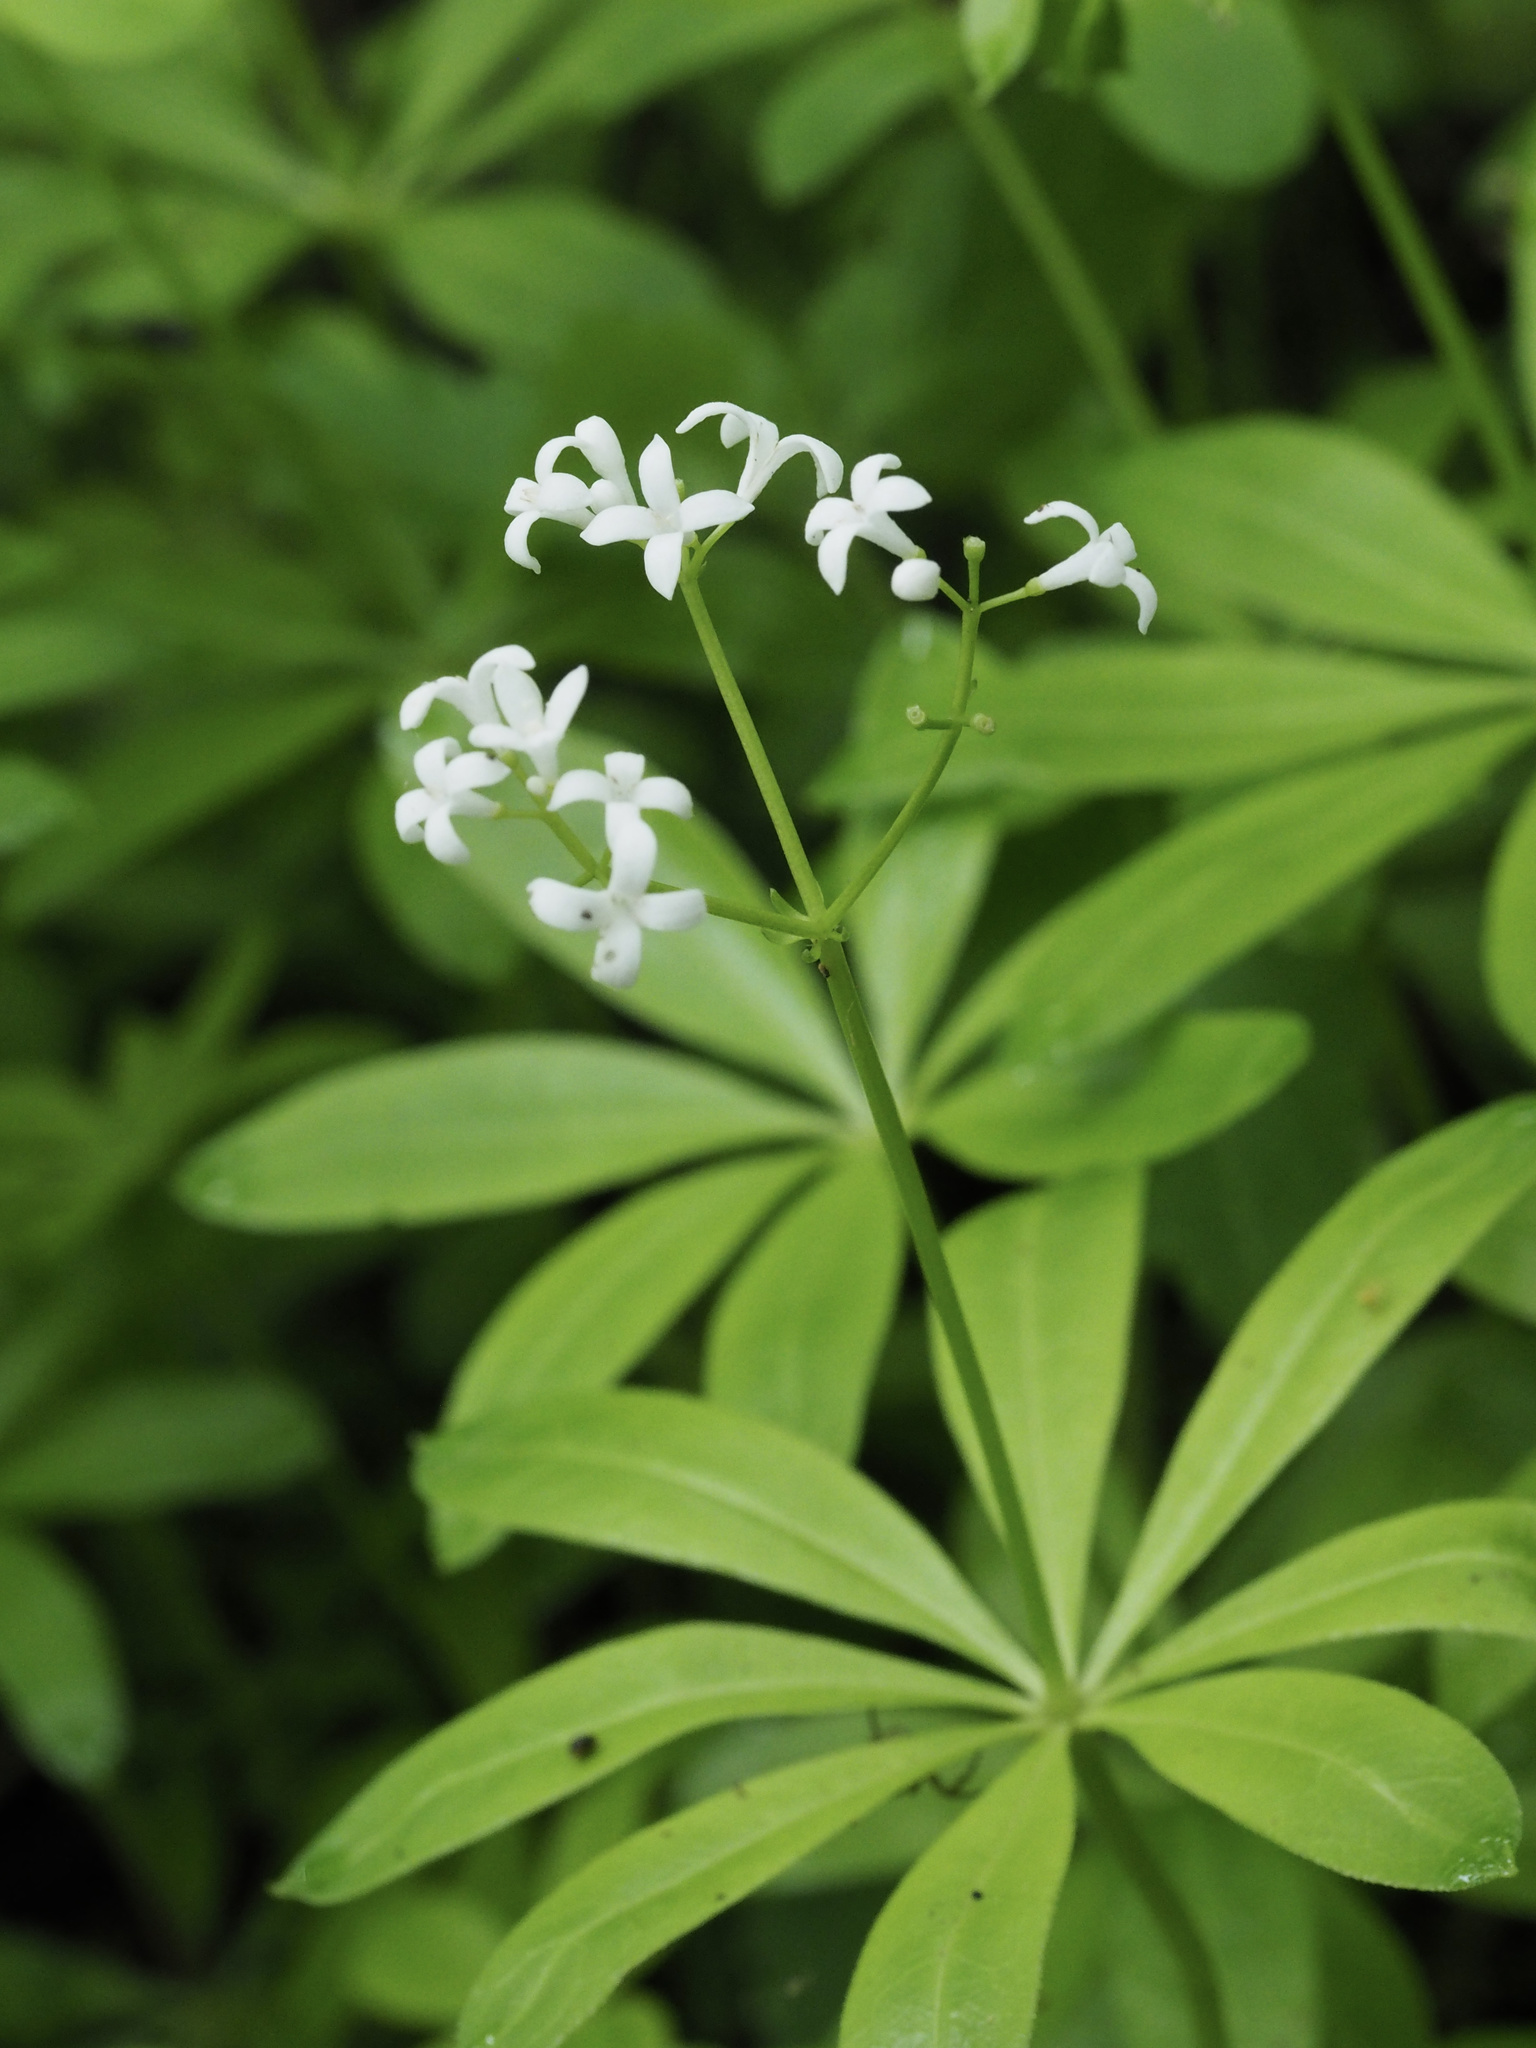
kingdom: Plantae
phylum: Tracheophyta
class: Magnoliopsida
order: Gentianales
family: Rubiaceae
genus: Galium
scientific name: Galium odoratum
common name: Sweet woodruff
